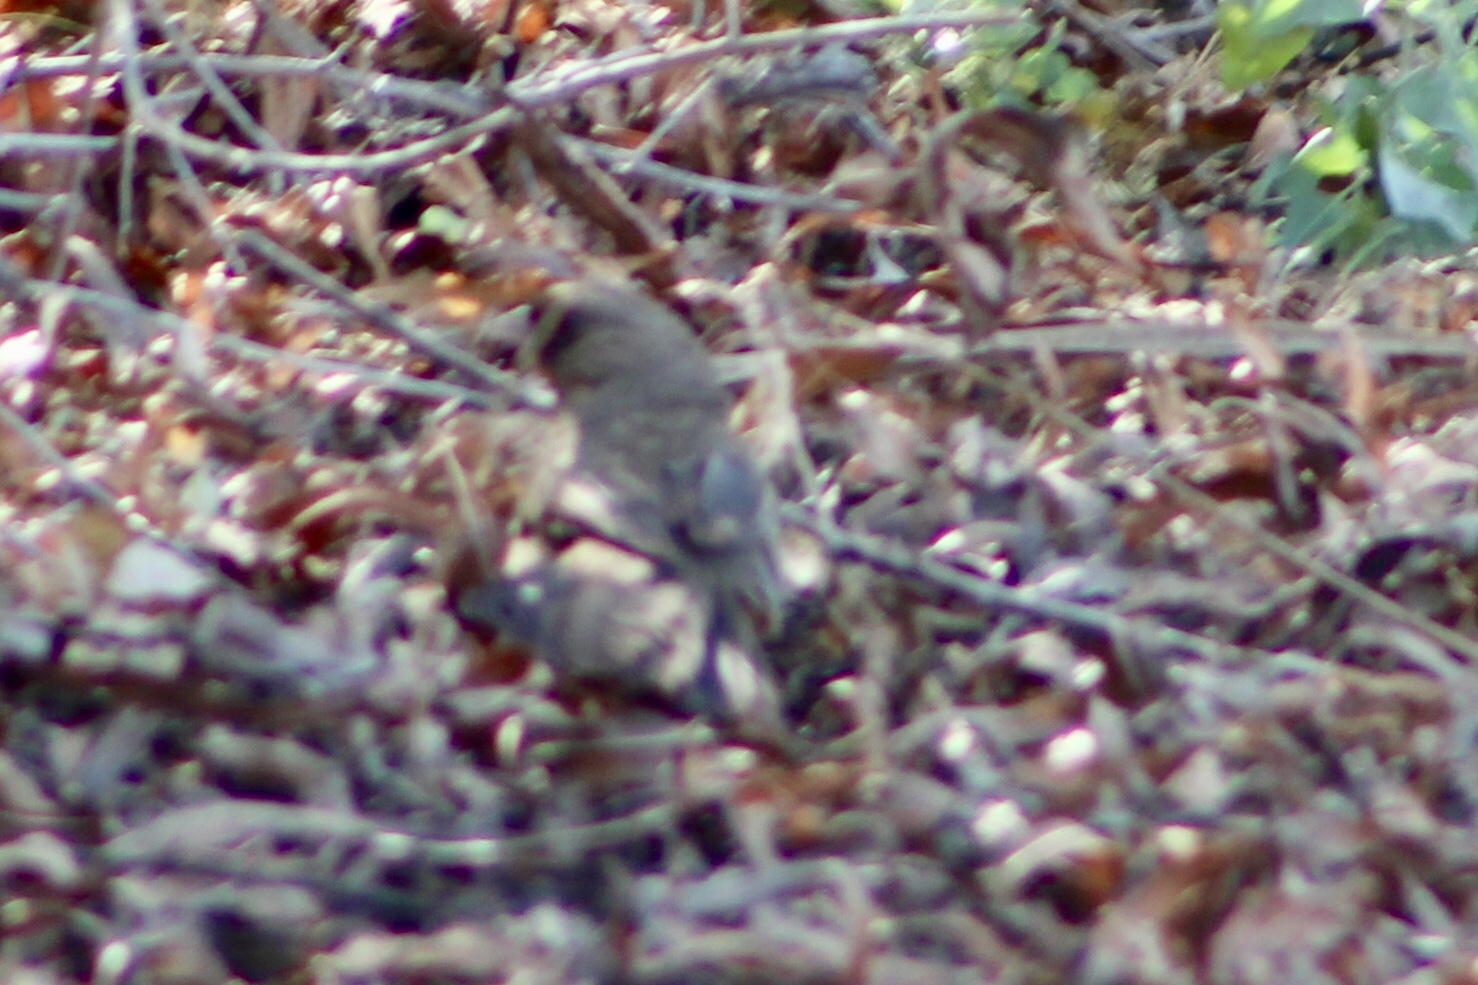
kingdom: Animalia
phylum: Chordata
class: Aves
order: Passeriformes
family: Passerellidae
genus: Melozone
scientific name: Melozone aberti
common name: Abert's towhee
